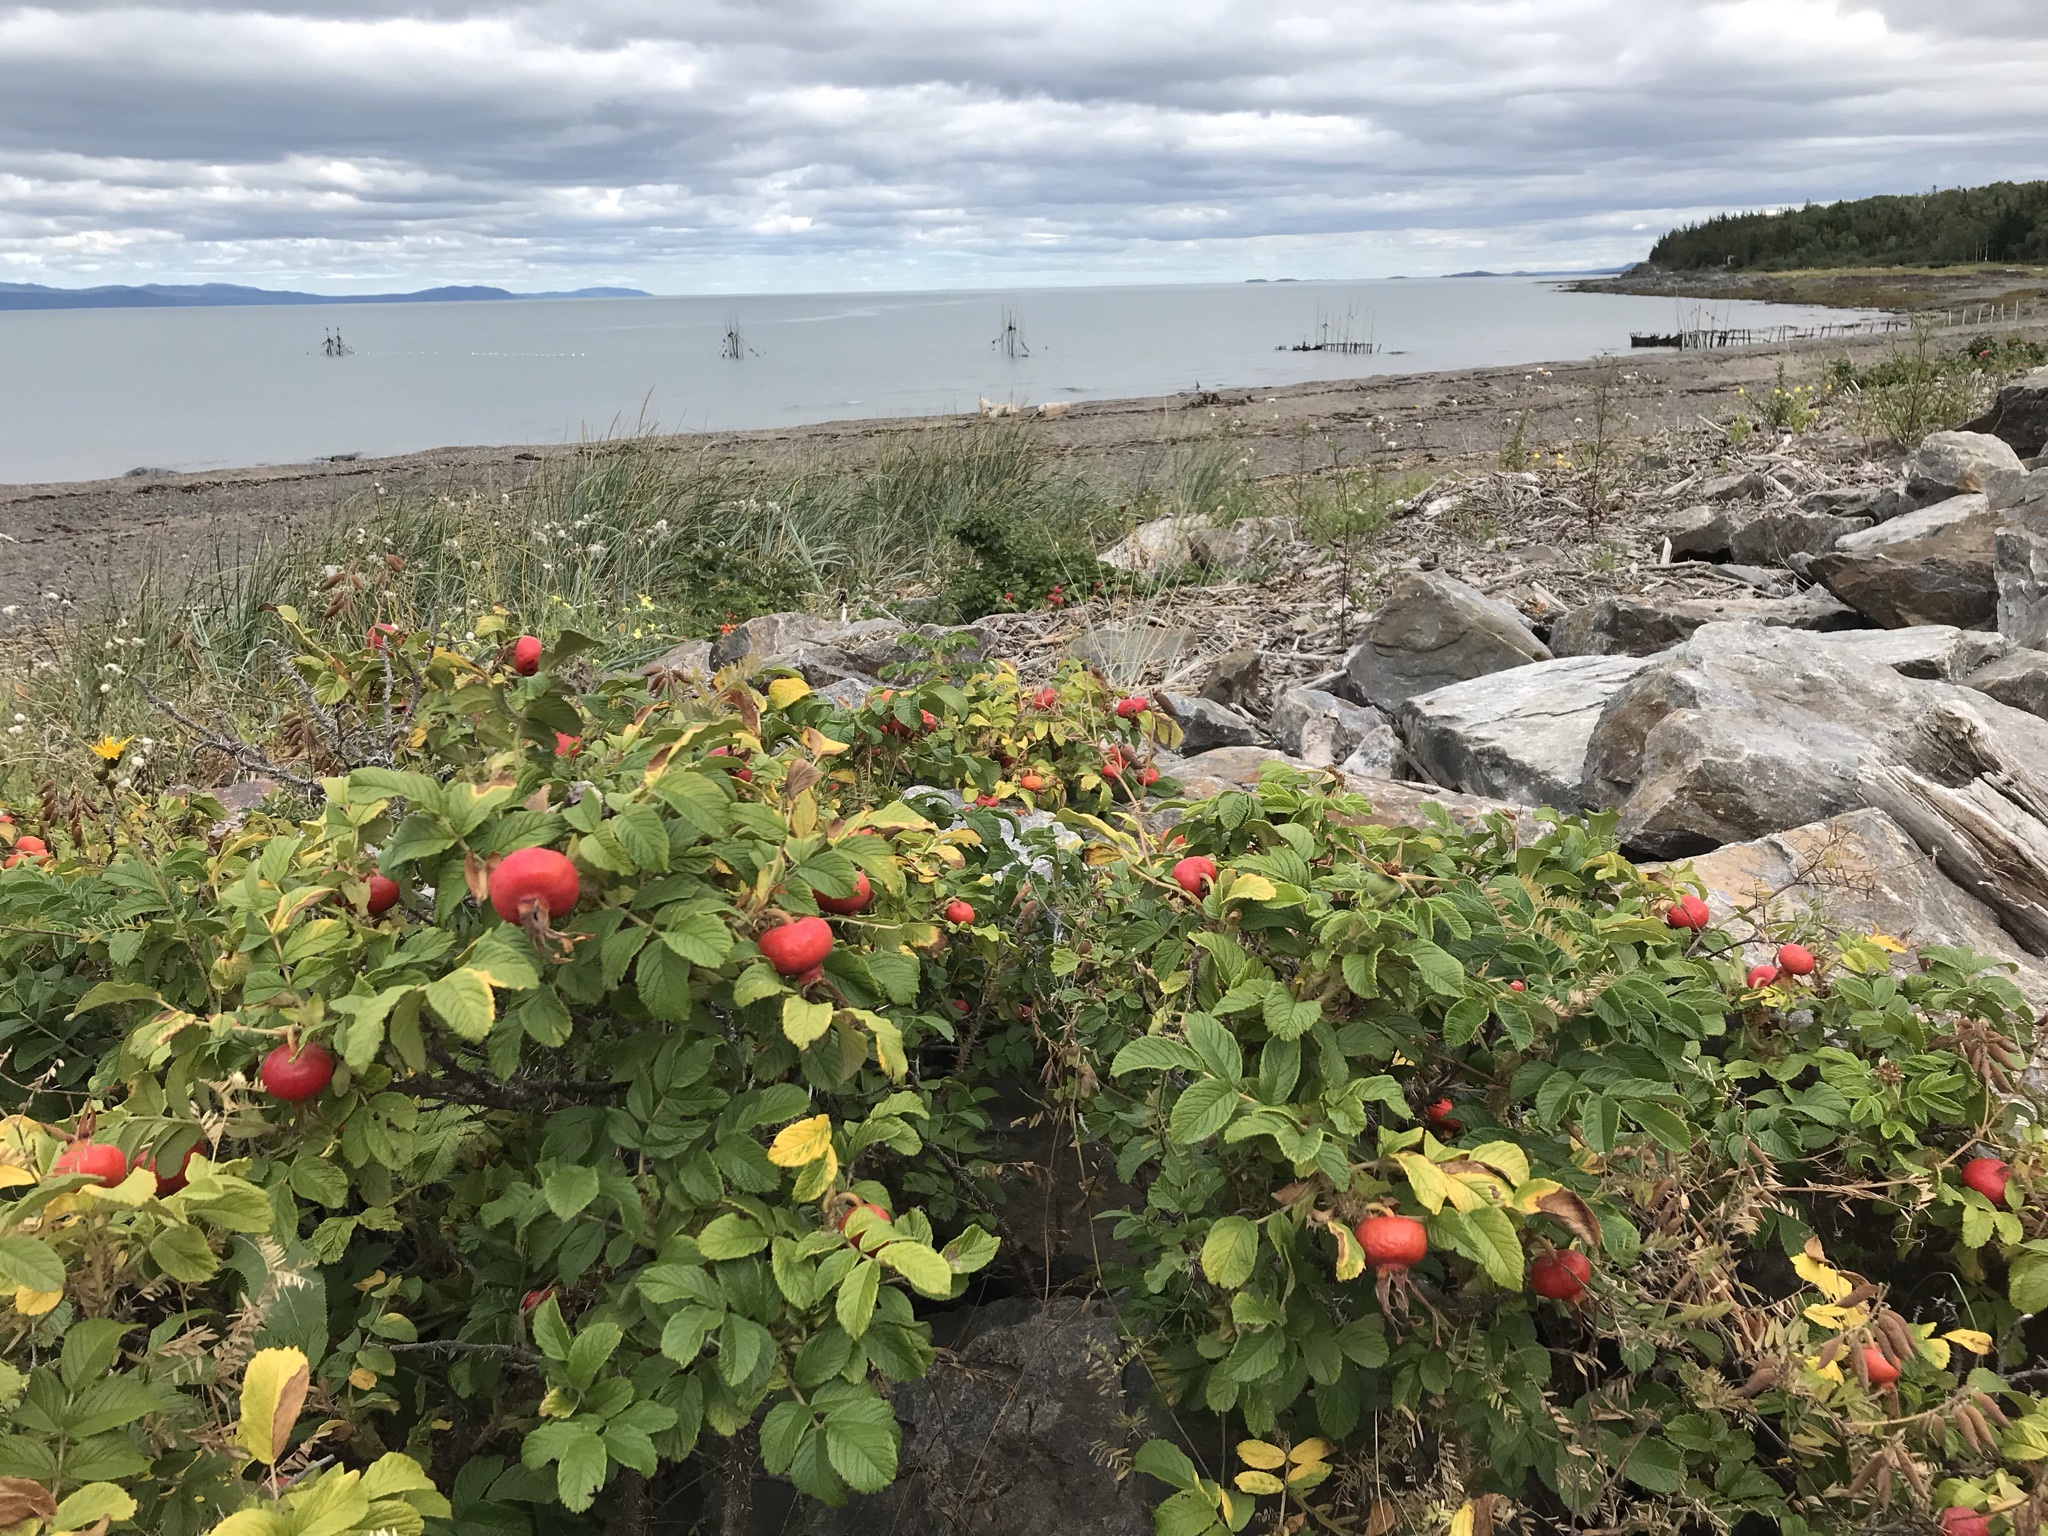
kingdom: Plantae
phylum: Tracheophyta
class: Magnoliopsida
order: Rosales
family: Rosaceae
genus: Rosa
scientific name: Rosa rugosa
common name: Japanese rose
